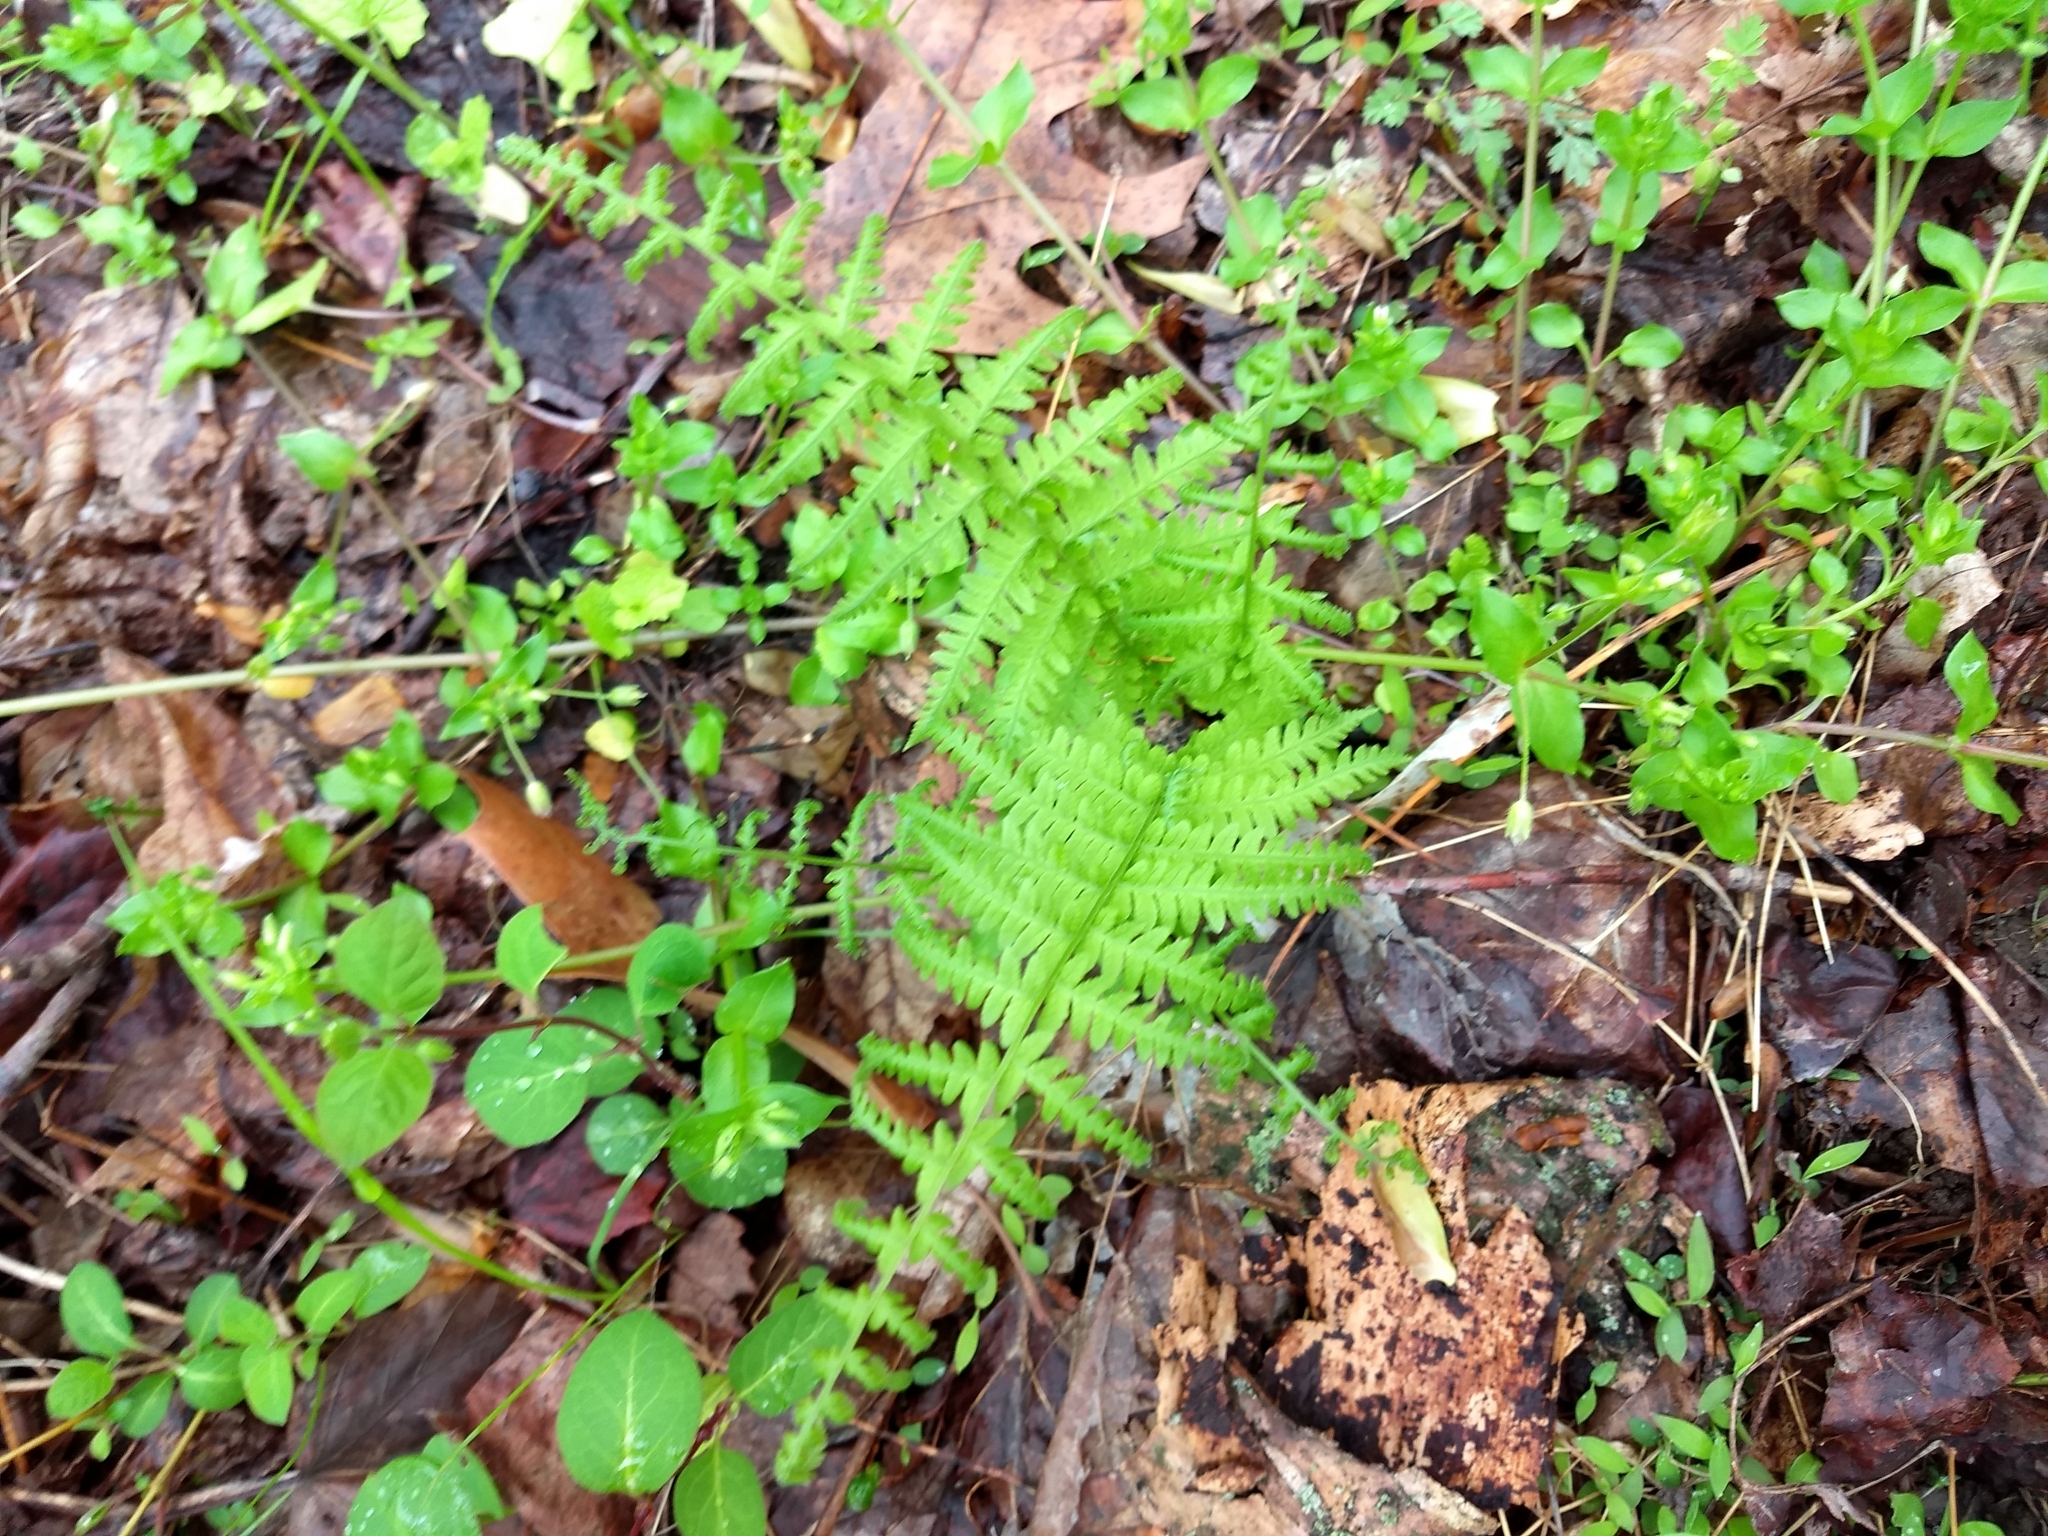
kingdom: Plantae
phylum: Tracheophyta
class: Polypodiopsida
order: Polypodiales
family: Thelypteridaceae
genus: Amauropelta
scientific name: Amauropelta noveboracensis
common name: New york fern
